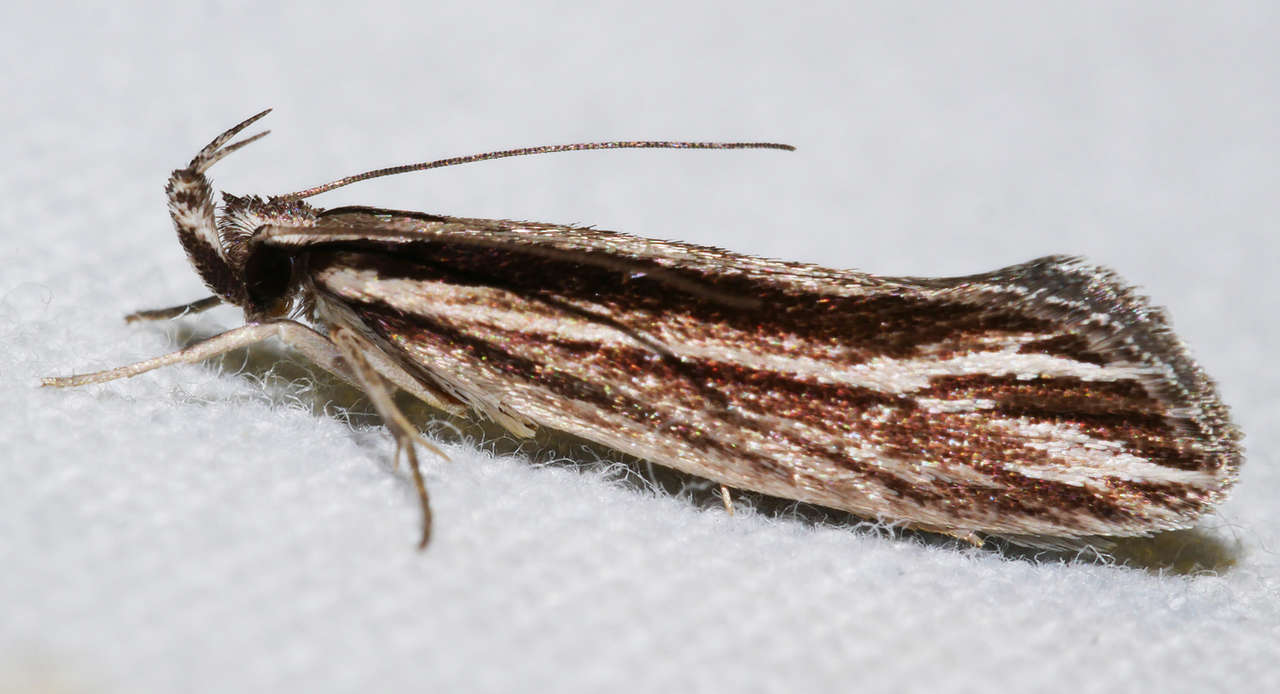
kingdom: Animalia
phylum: Arthropoda
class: Insecta
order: Lepidoptera
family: Depressariidae
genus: Cryptolechia
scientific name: Cryptolechia Leptosaces schistopa
